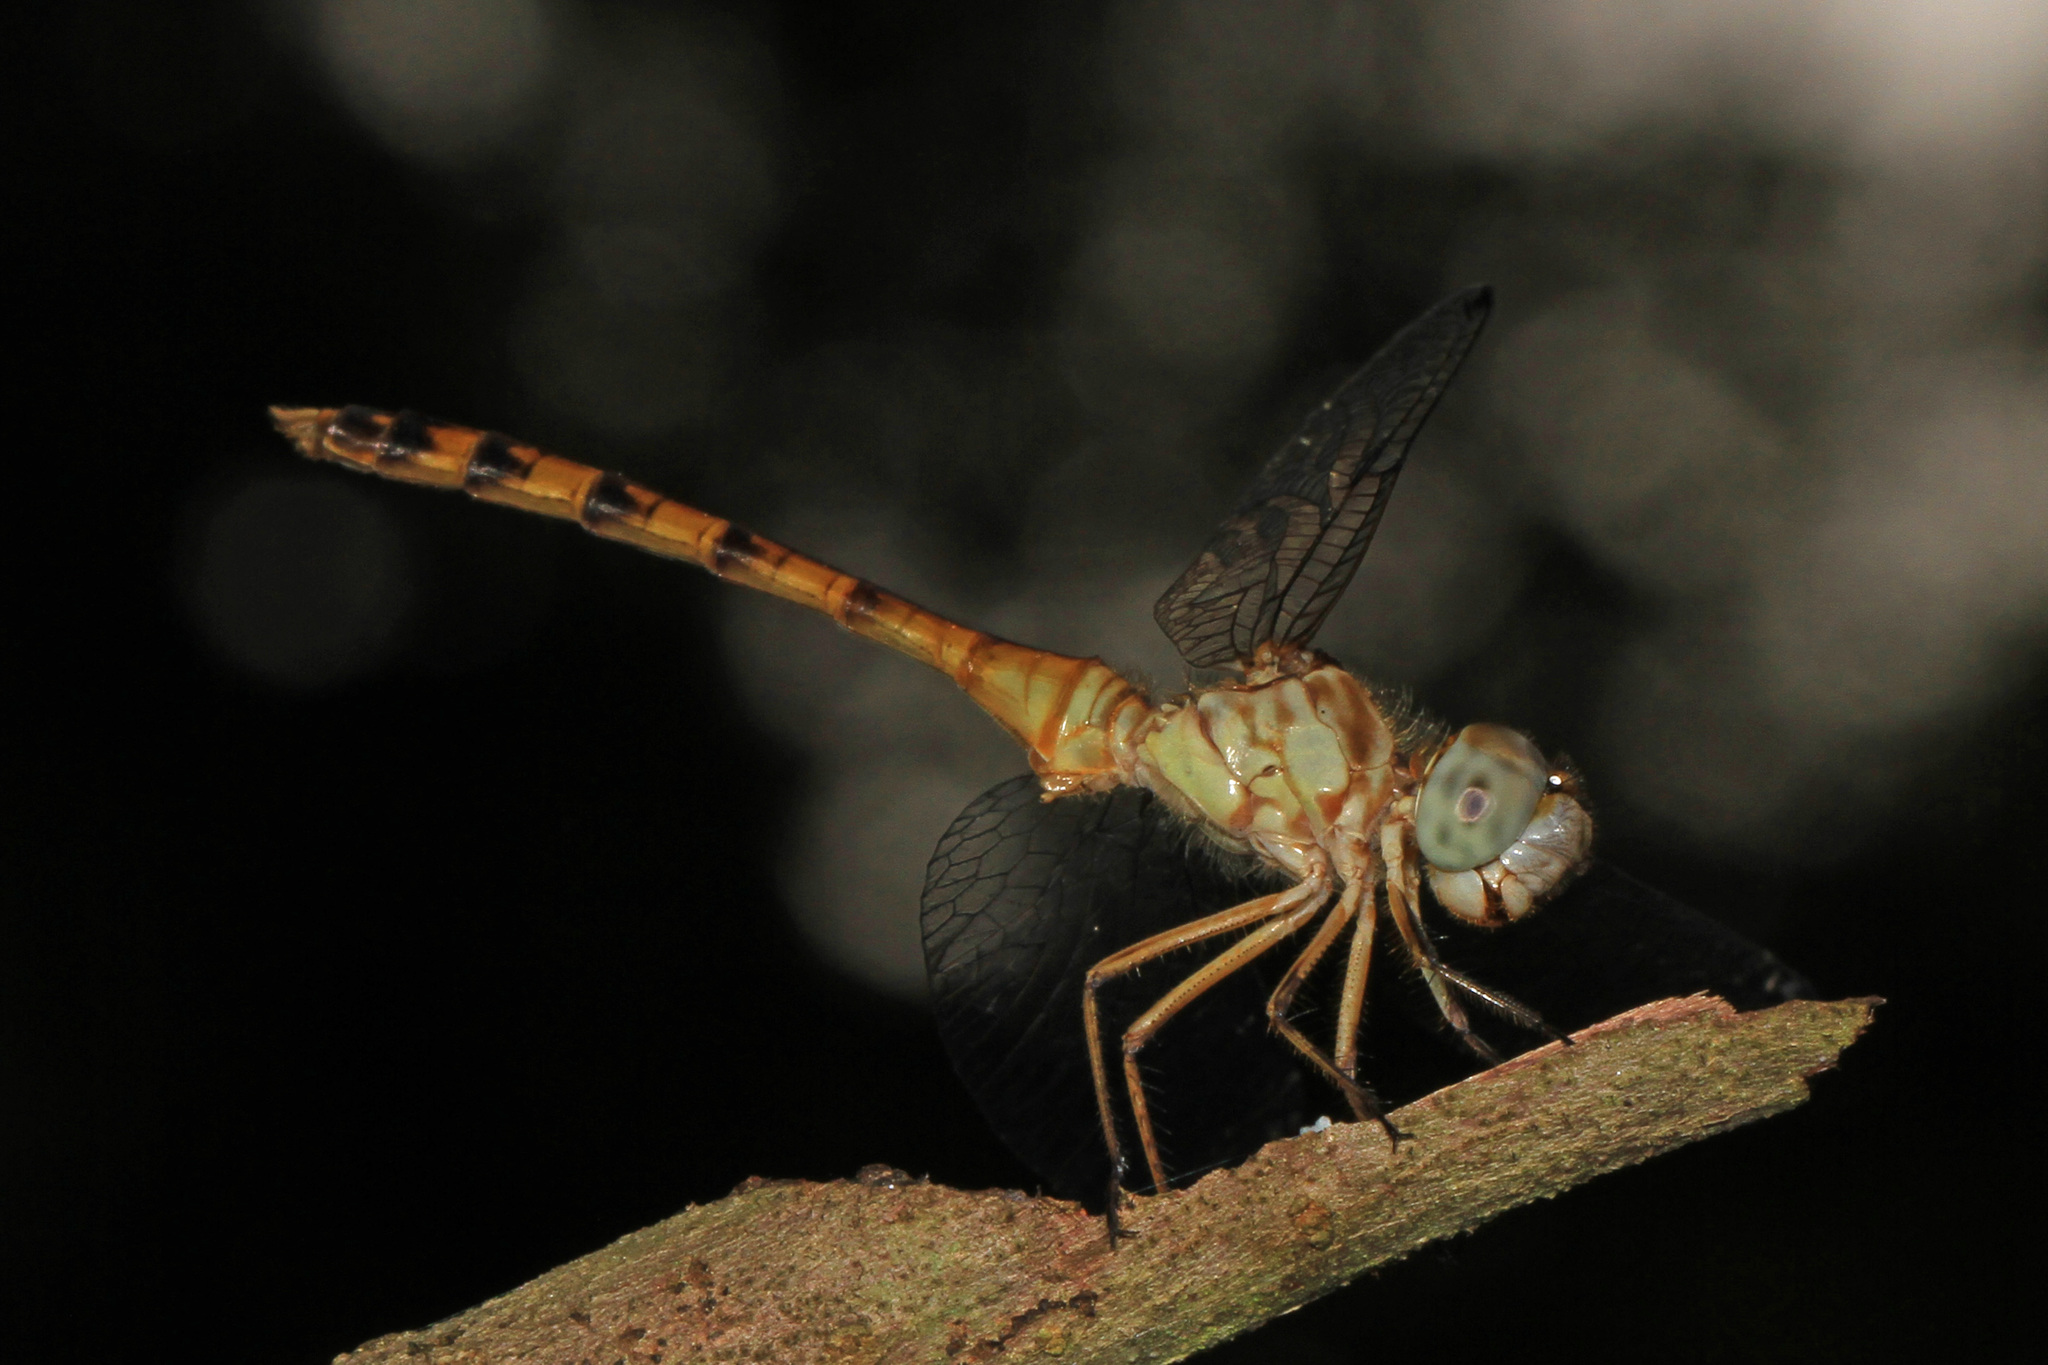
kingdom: Animalia
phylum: Arthropoda
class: Insecta
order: Odonata
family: Libellulidae
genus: Sympetrum
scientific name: Sympetrum ambiguum
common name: Blue-faced meadowhawk
